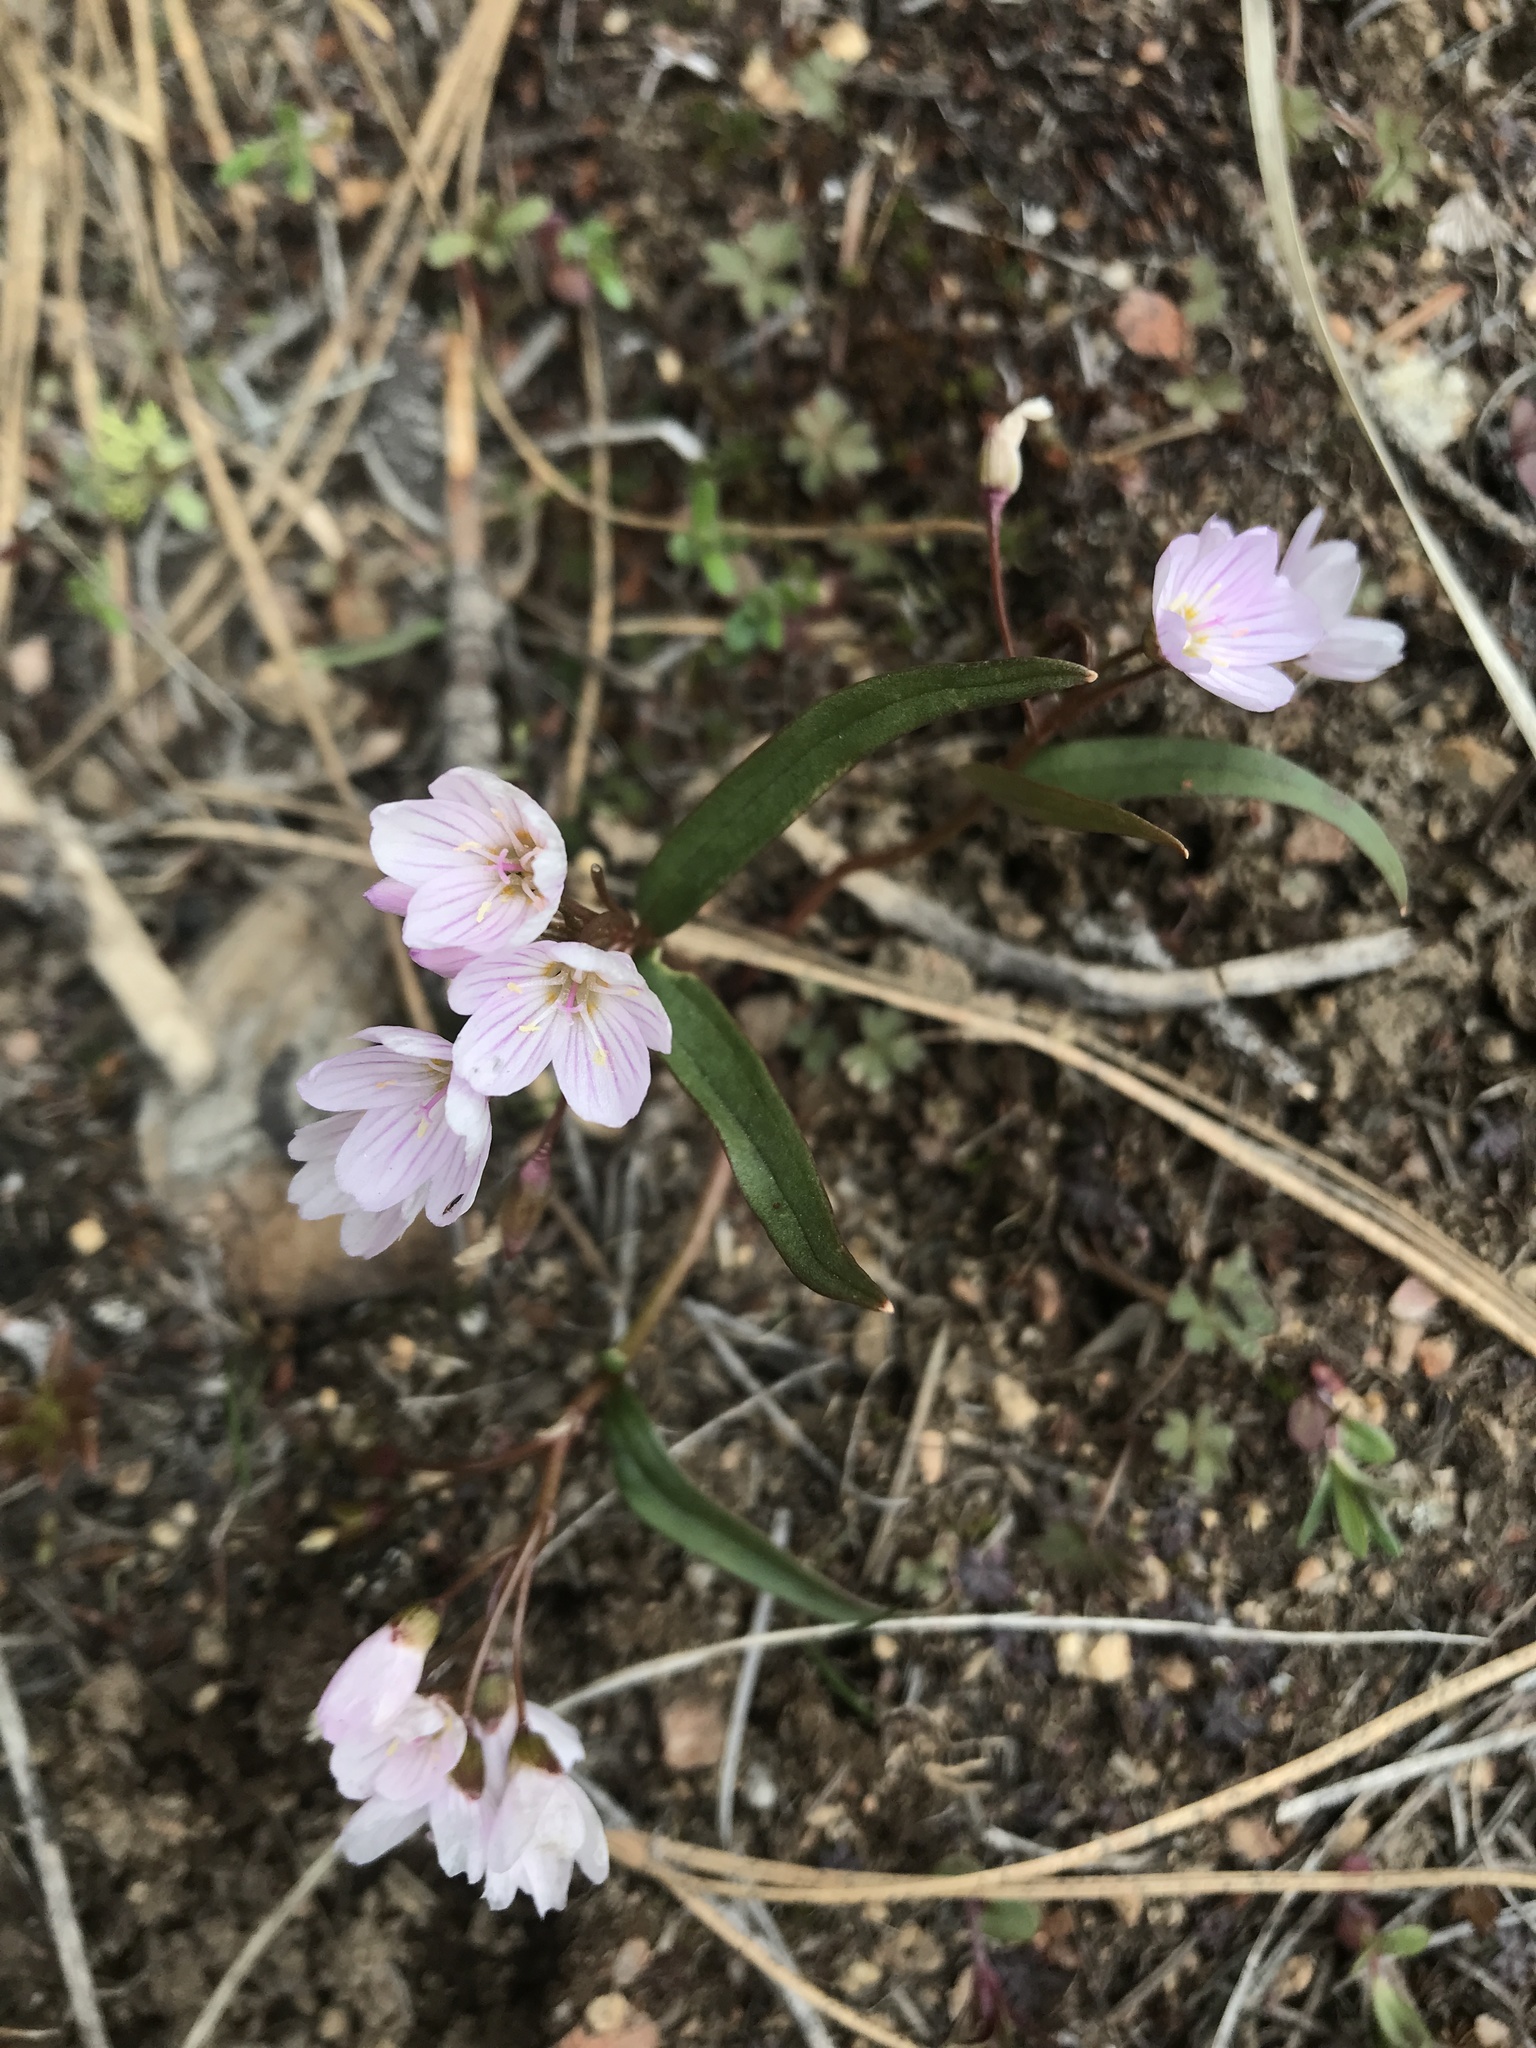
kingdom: Plantae
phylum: Tracheophyta
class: Magnoliopsida
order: Caryophyllales
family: Montiaceae
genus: Claytonia
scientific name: Claytonia lanceolata
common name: Western spring-beauty
